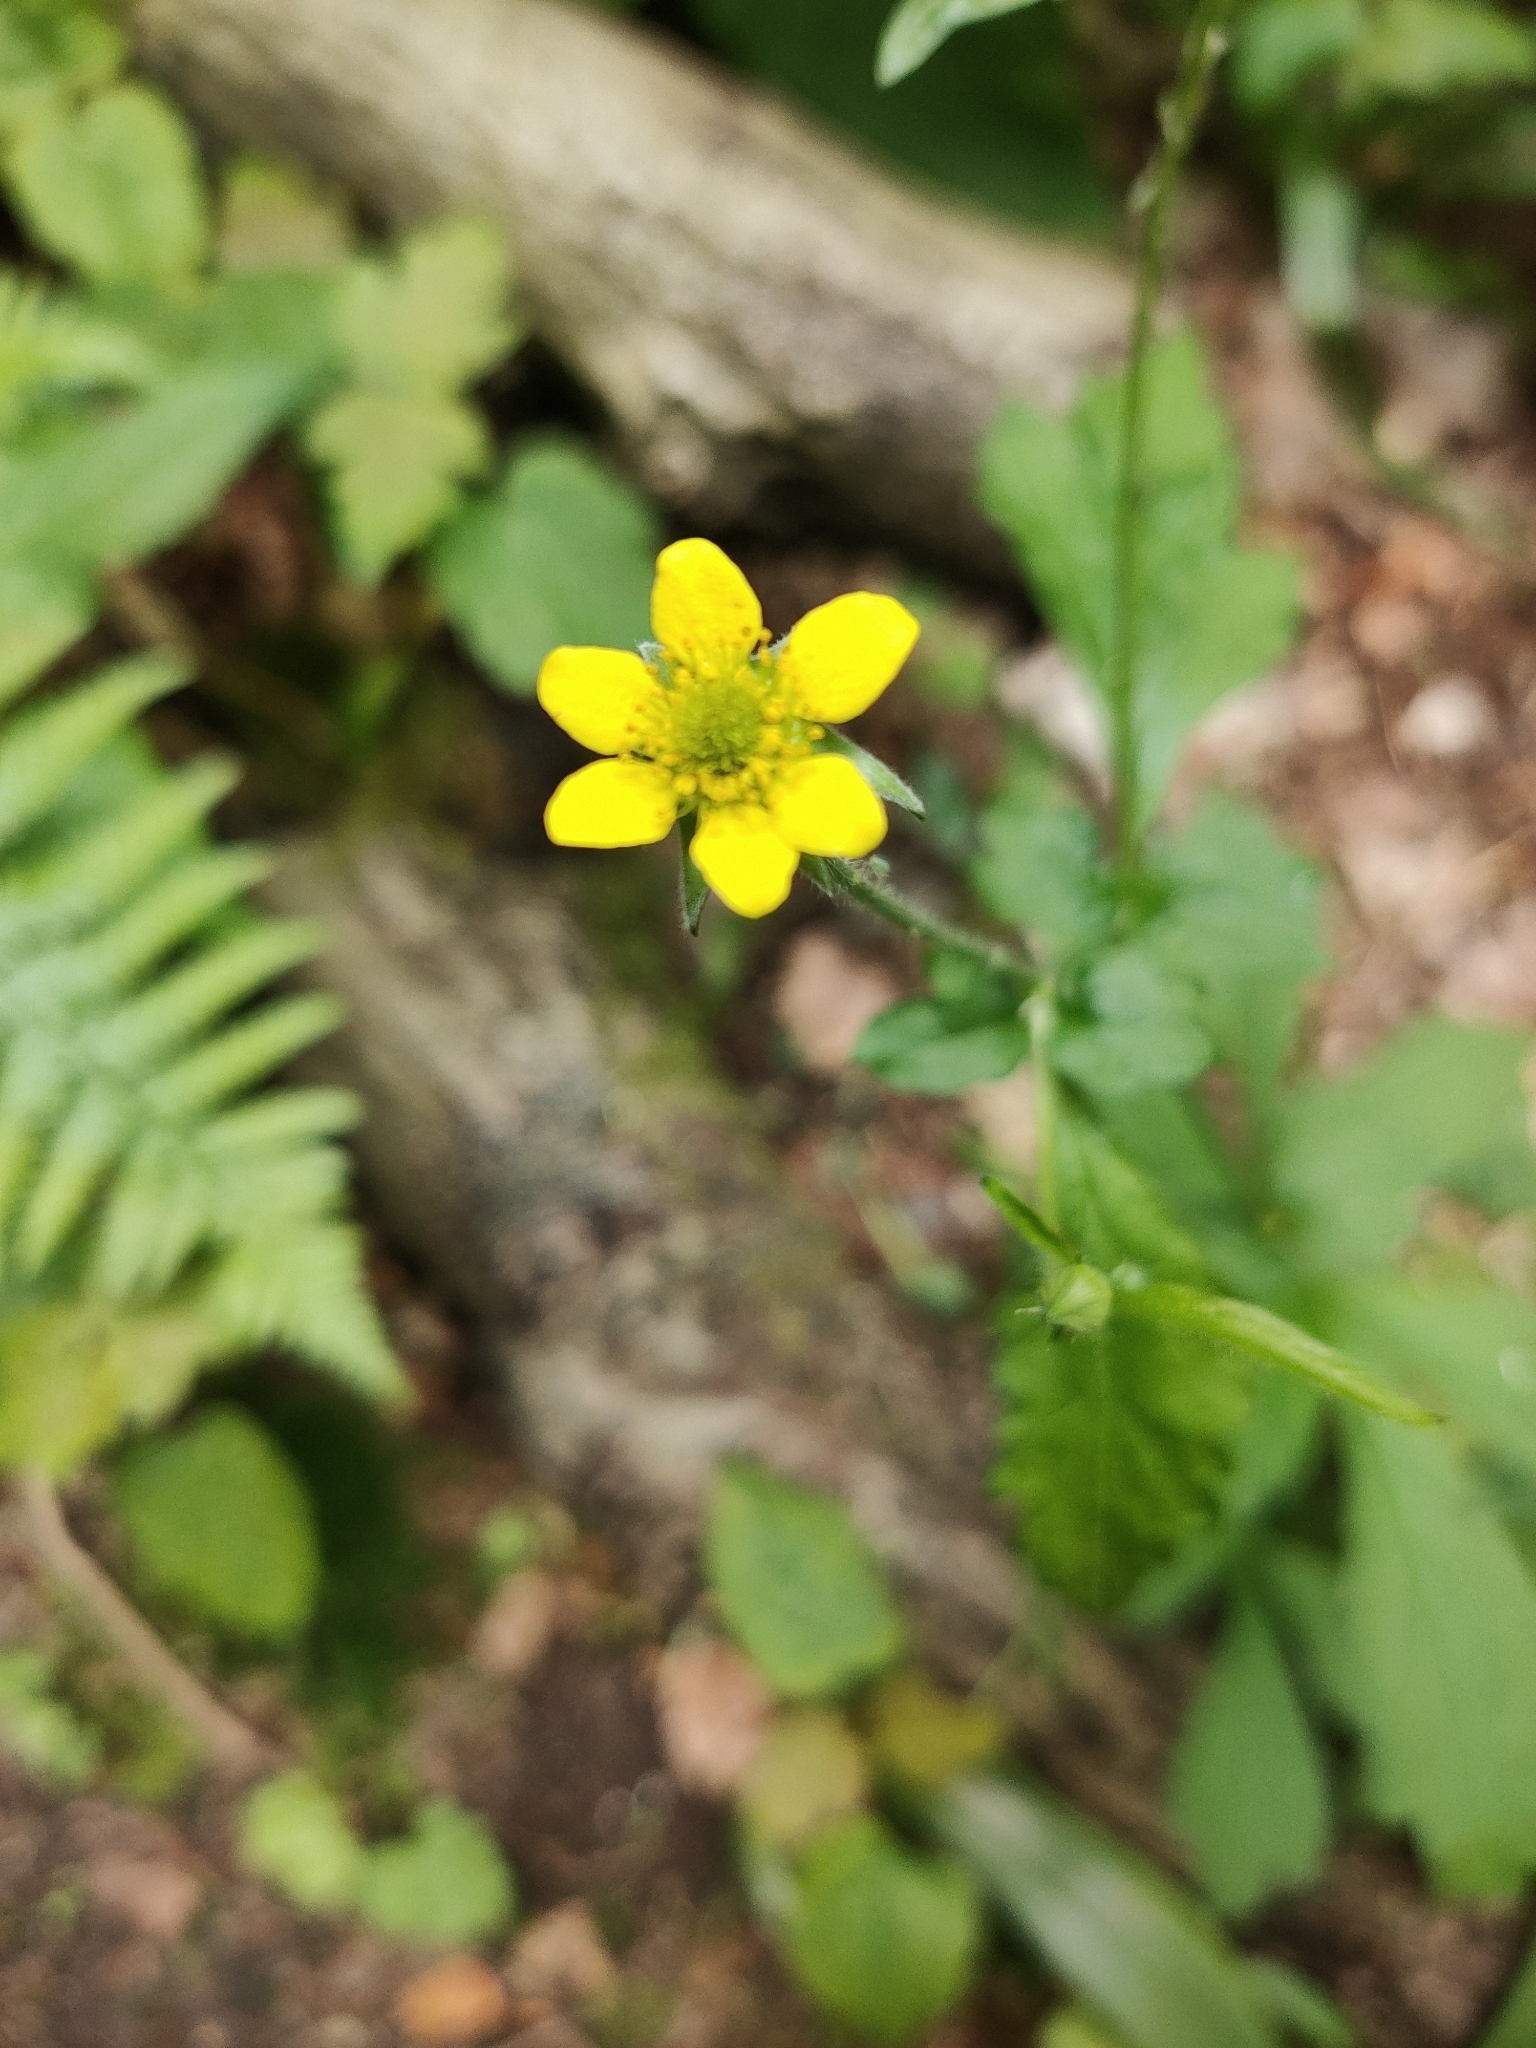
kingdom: Plantae
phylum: Tracheophyta
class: Magnoliopsida
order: Rosales
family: Rosaceae
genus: Geum
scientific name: Geum urbanum
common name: Wood avens
